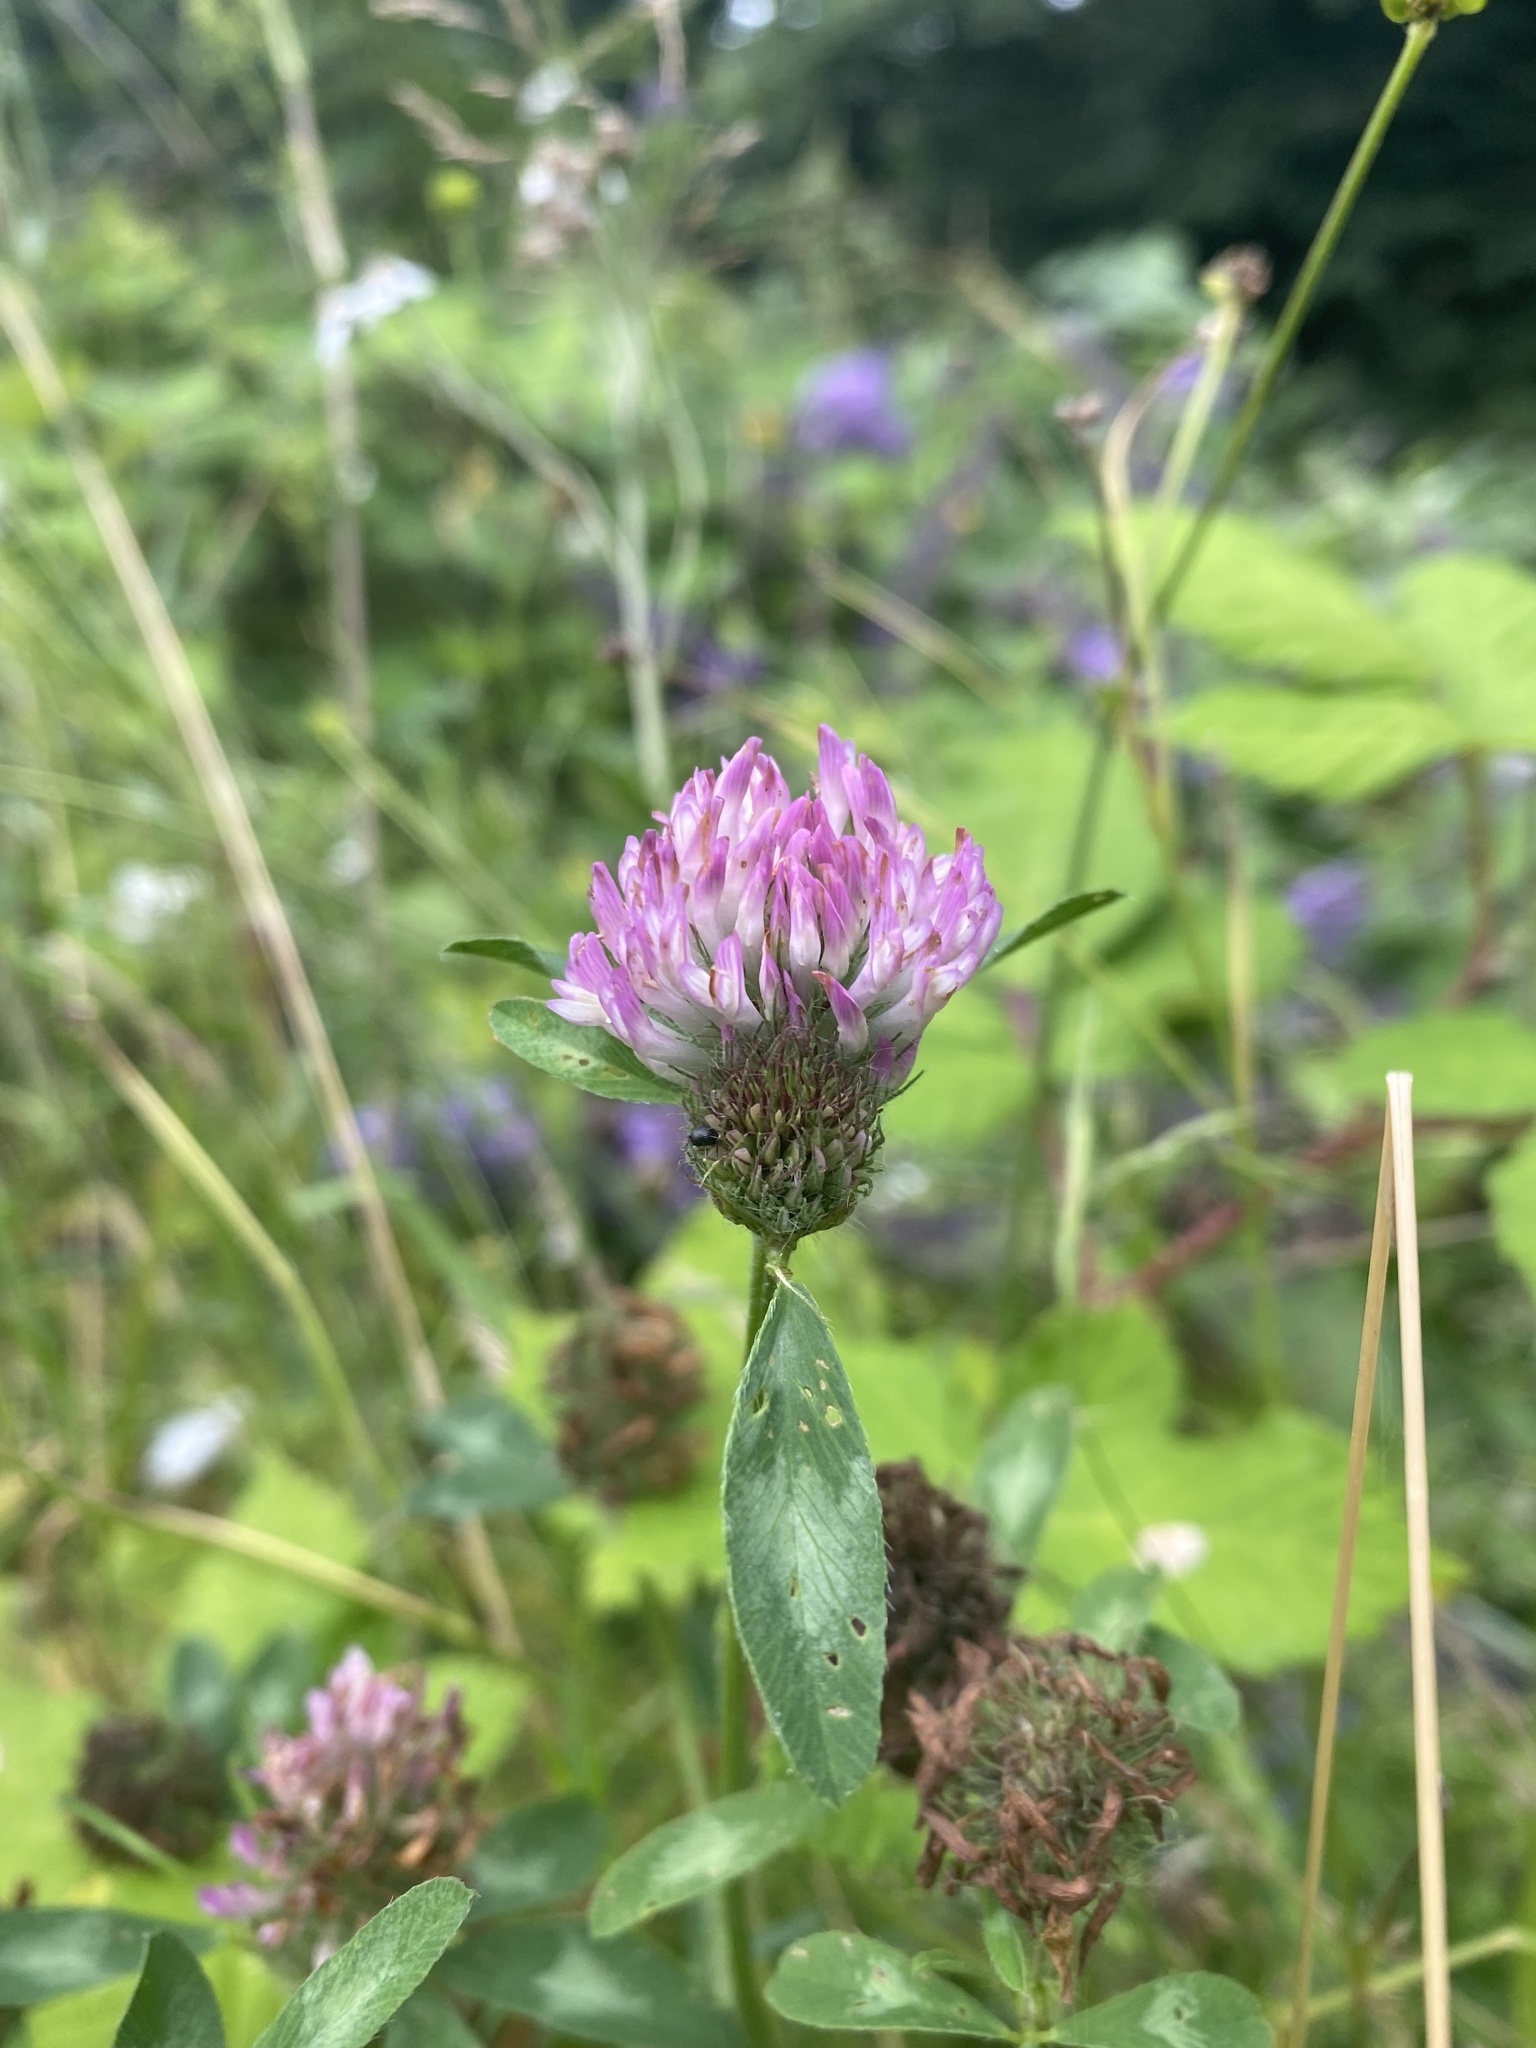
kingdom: Plantae
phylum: Tracheophyta
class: Magnoliopsida
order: Fabales
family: Fabaceae
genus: Trifolium
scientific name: Trifolium pratense
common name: Red clover
